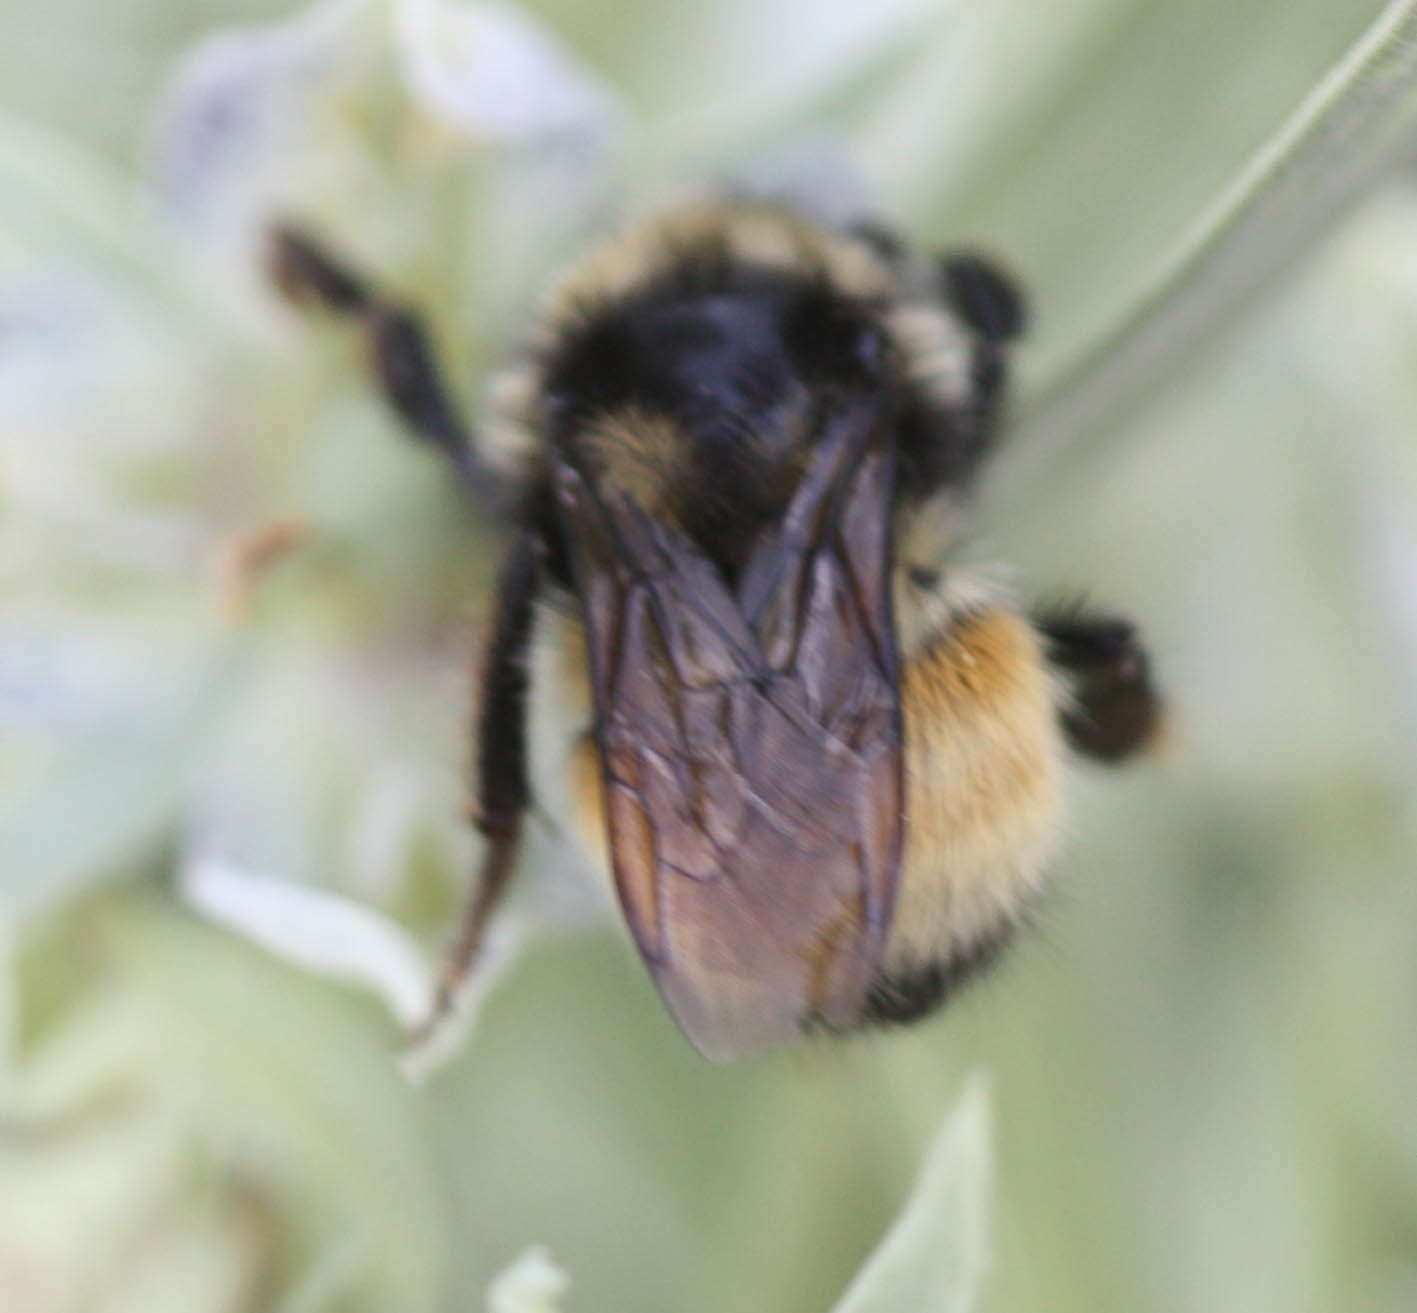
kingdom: Animalia
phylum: Arthropoda
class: Insecta
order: Hymenoptera
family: Apidae
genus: Bombus
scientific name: Bombus
